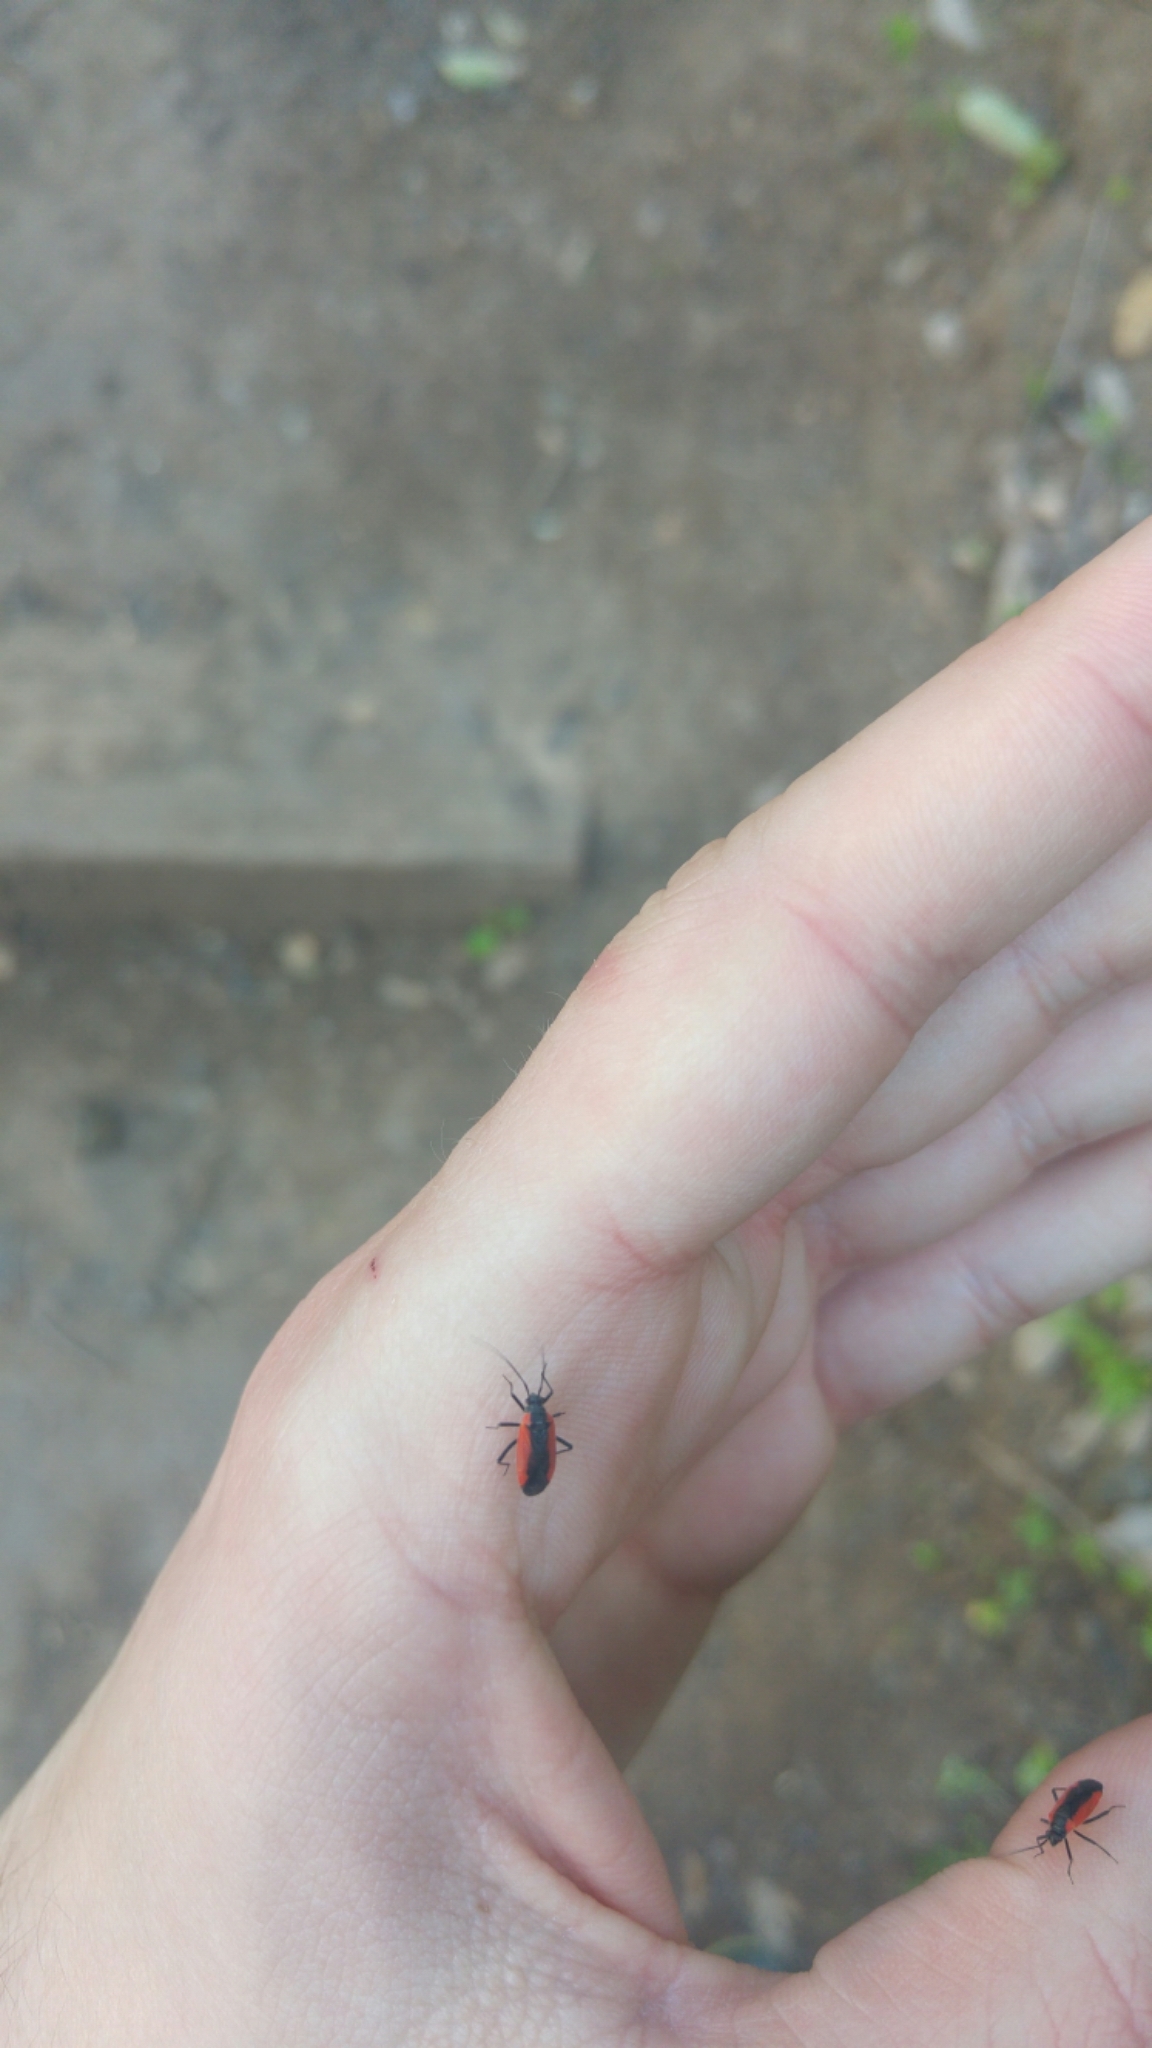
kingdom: Animalia
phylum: Arthropoda
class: Insecta
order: Hemiptera
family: Miridae
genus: Dionconotus
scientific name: Dionconotus neglectus
